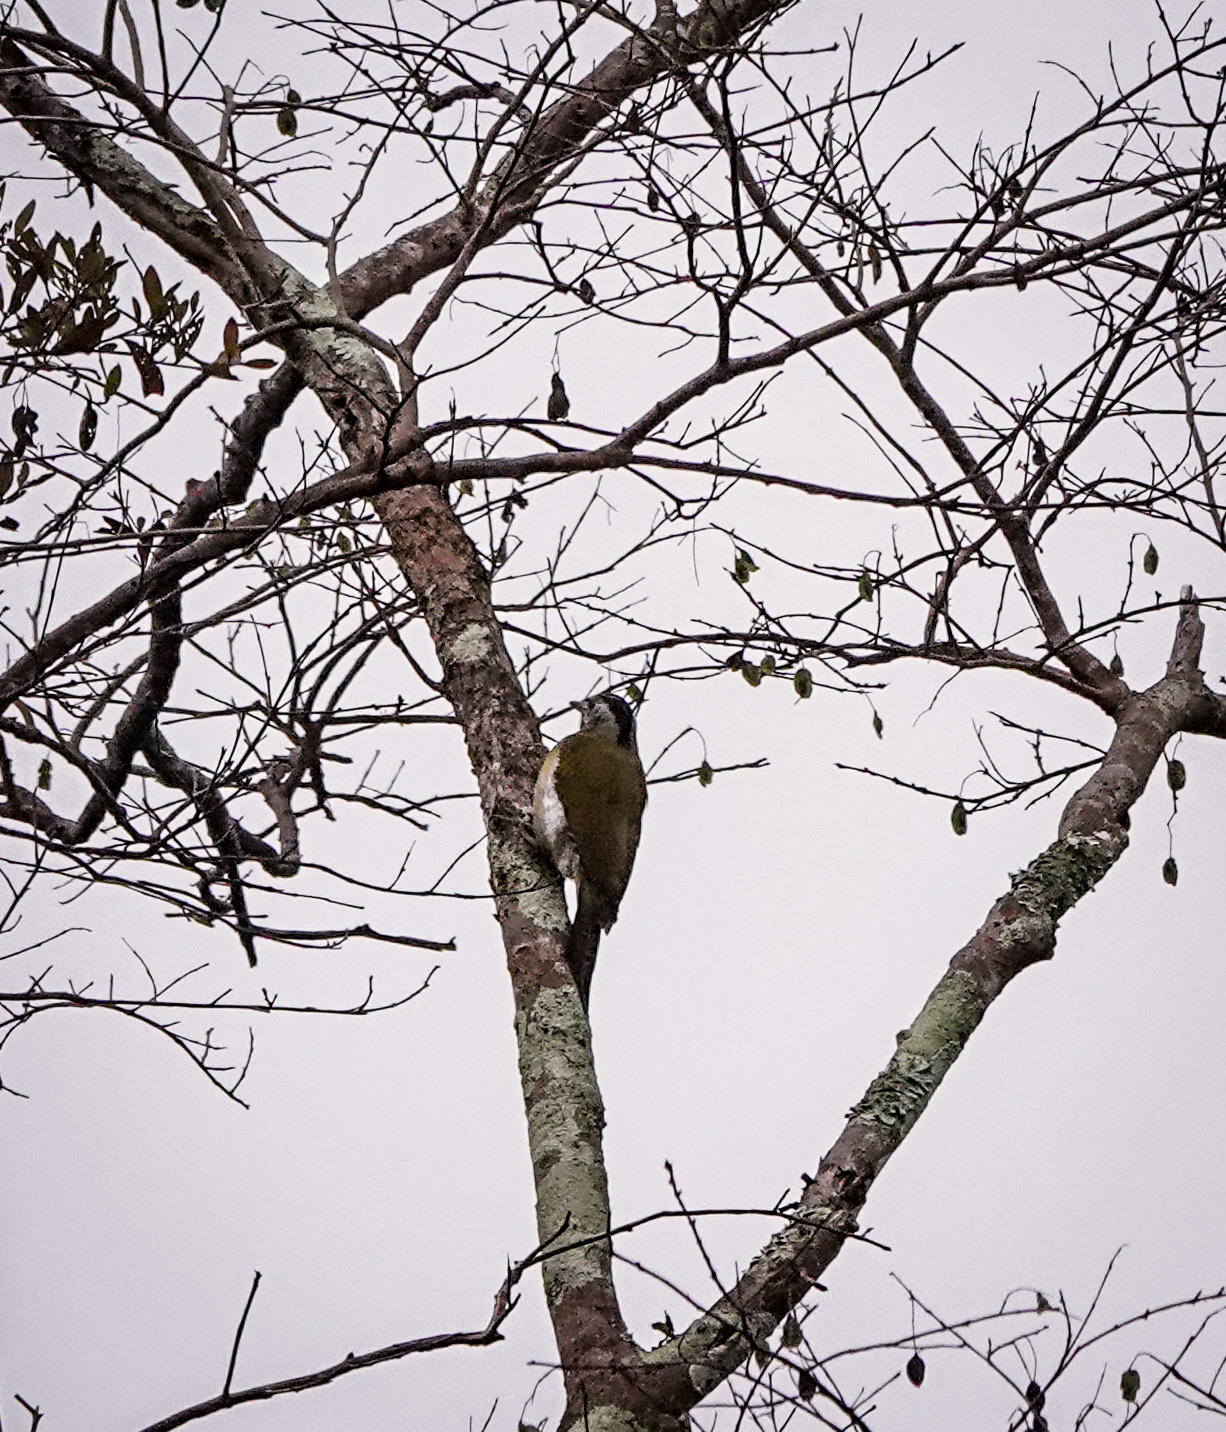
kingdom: Animalia
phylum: Chordata
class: Aves
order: Piciformes
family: Picidae
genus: Picus
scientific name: Picus canus
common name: Grey-headed woodpecker
